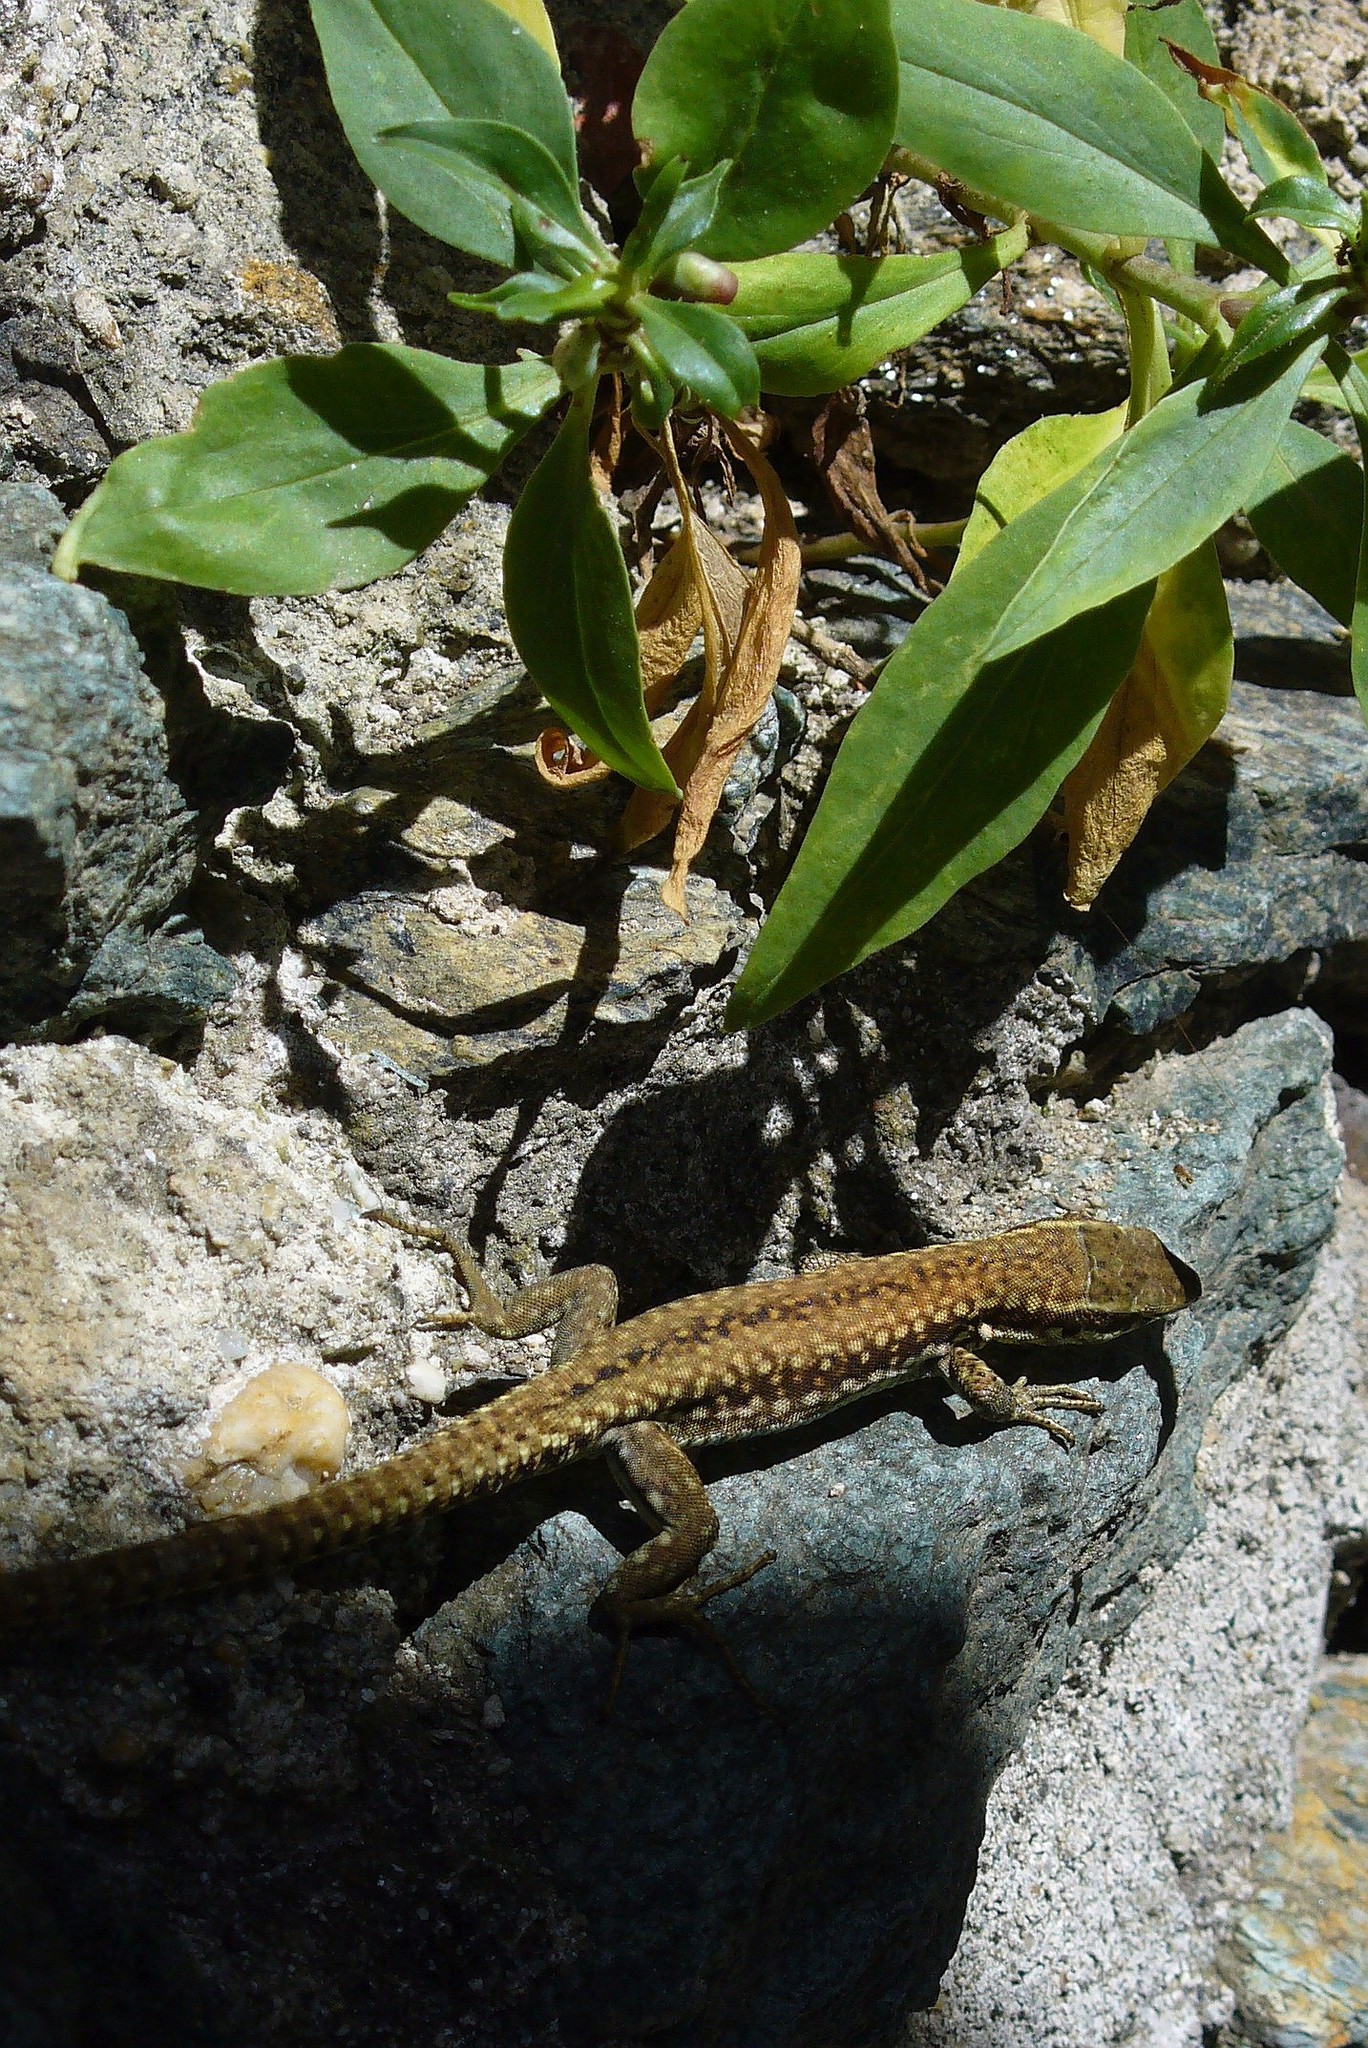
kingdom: Animalia
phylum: Chordata
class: Squamata
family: Lacertidae
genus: Podarcis
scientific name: Podarcis muralis
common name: Common wall lizard
